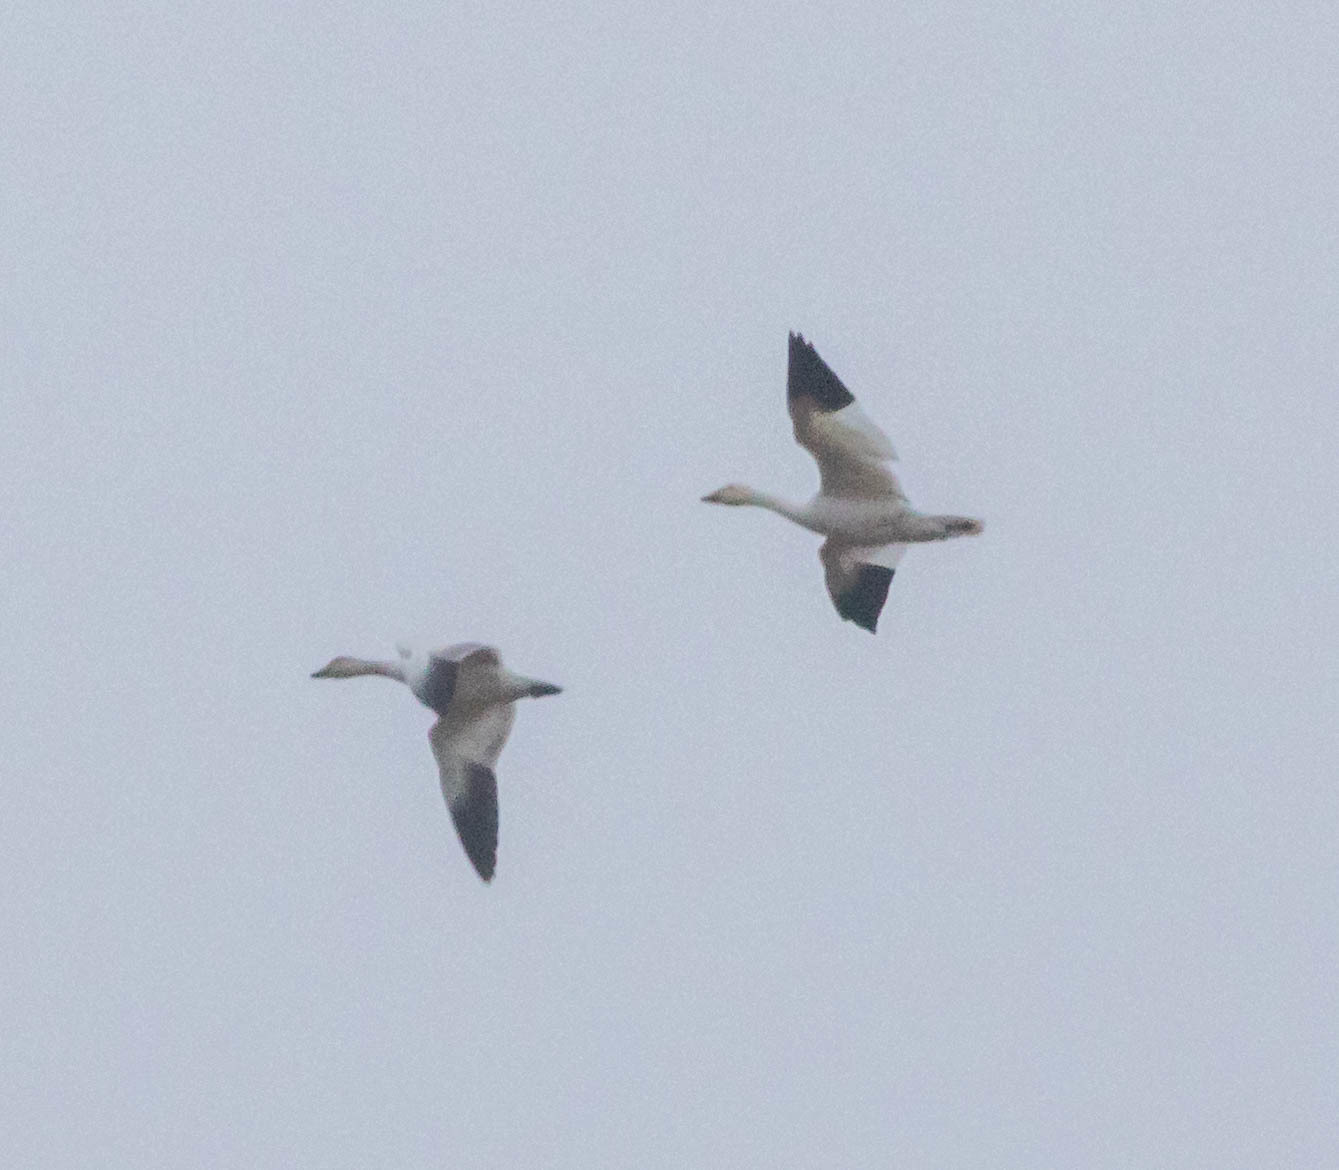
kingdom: Animalia
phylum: Chordata
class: Aves
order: Anseriformes
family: Anatidae
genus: Anser
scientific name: Anser caerulescens
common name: Snow goose
